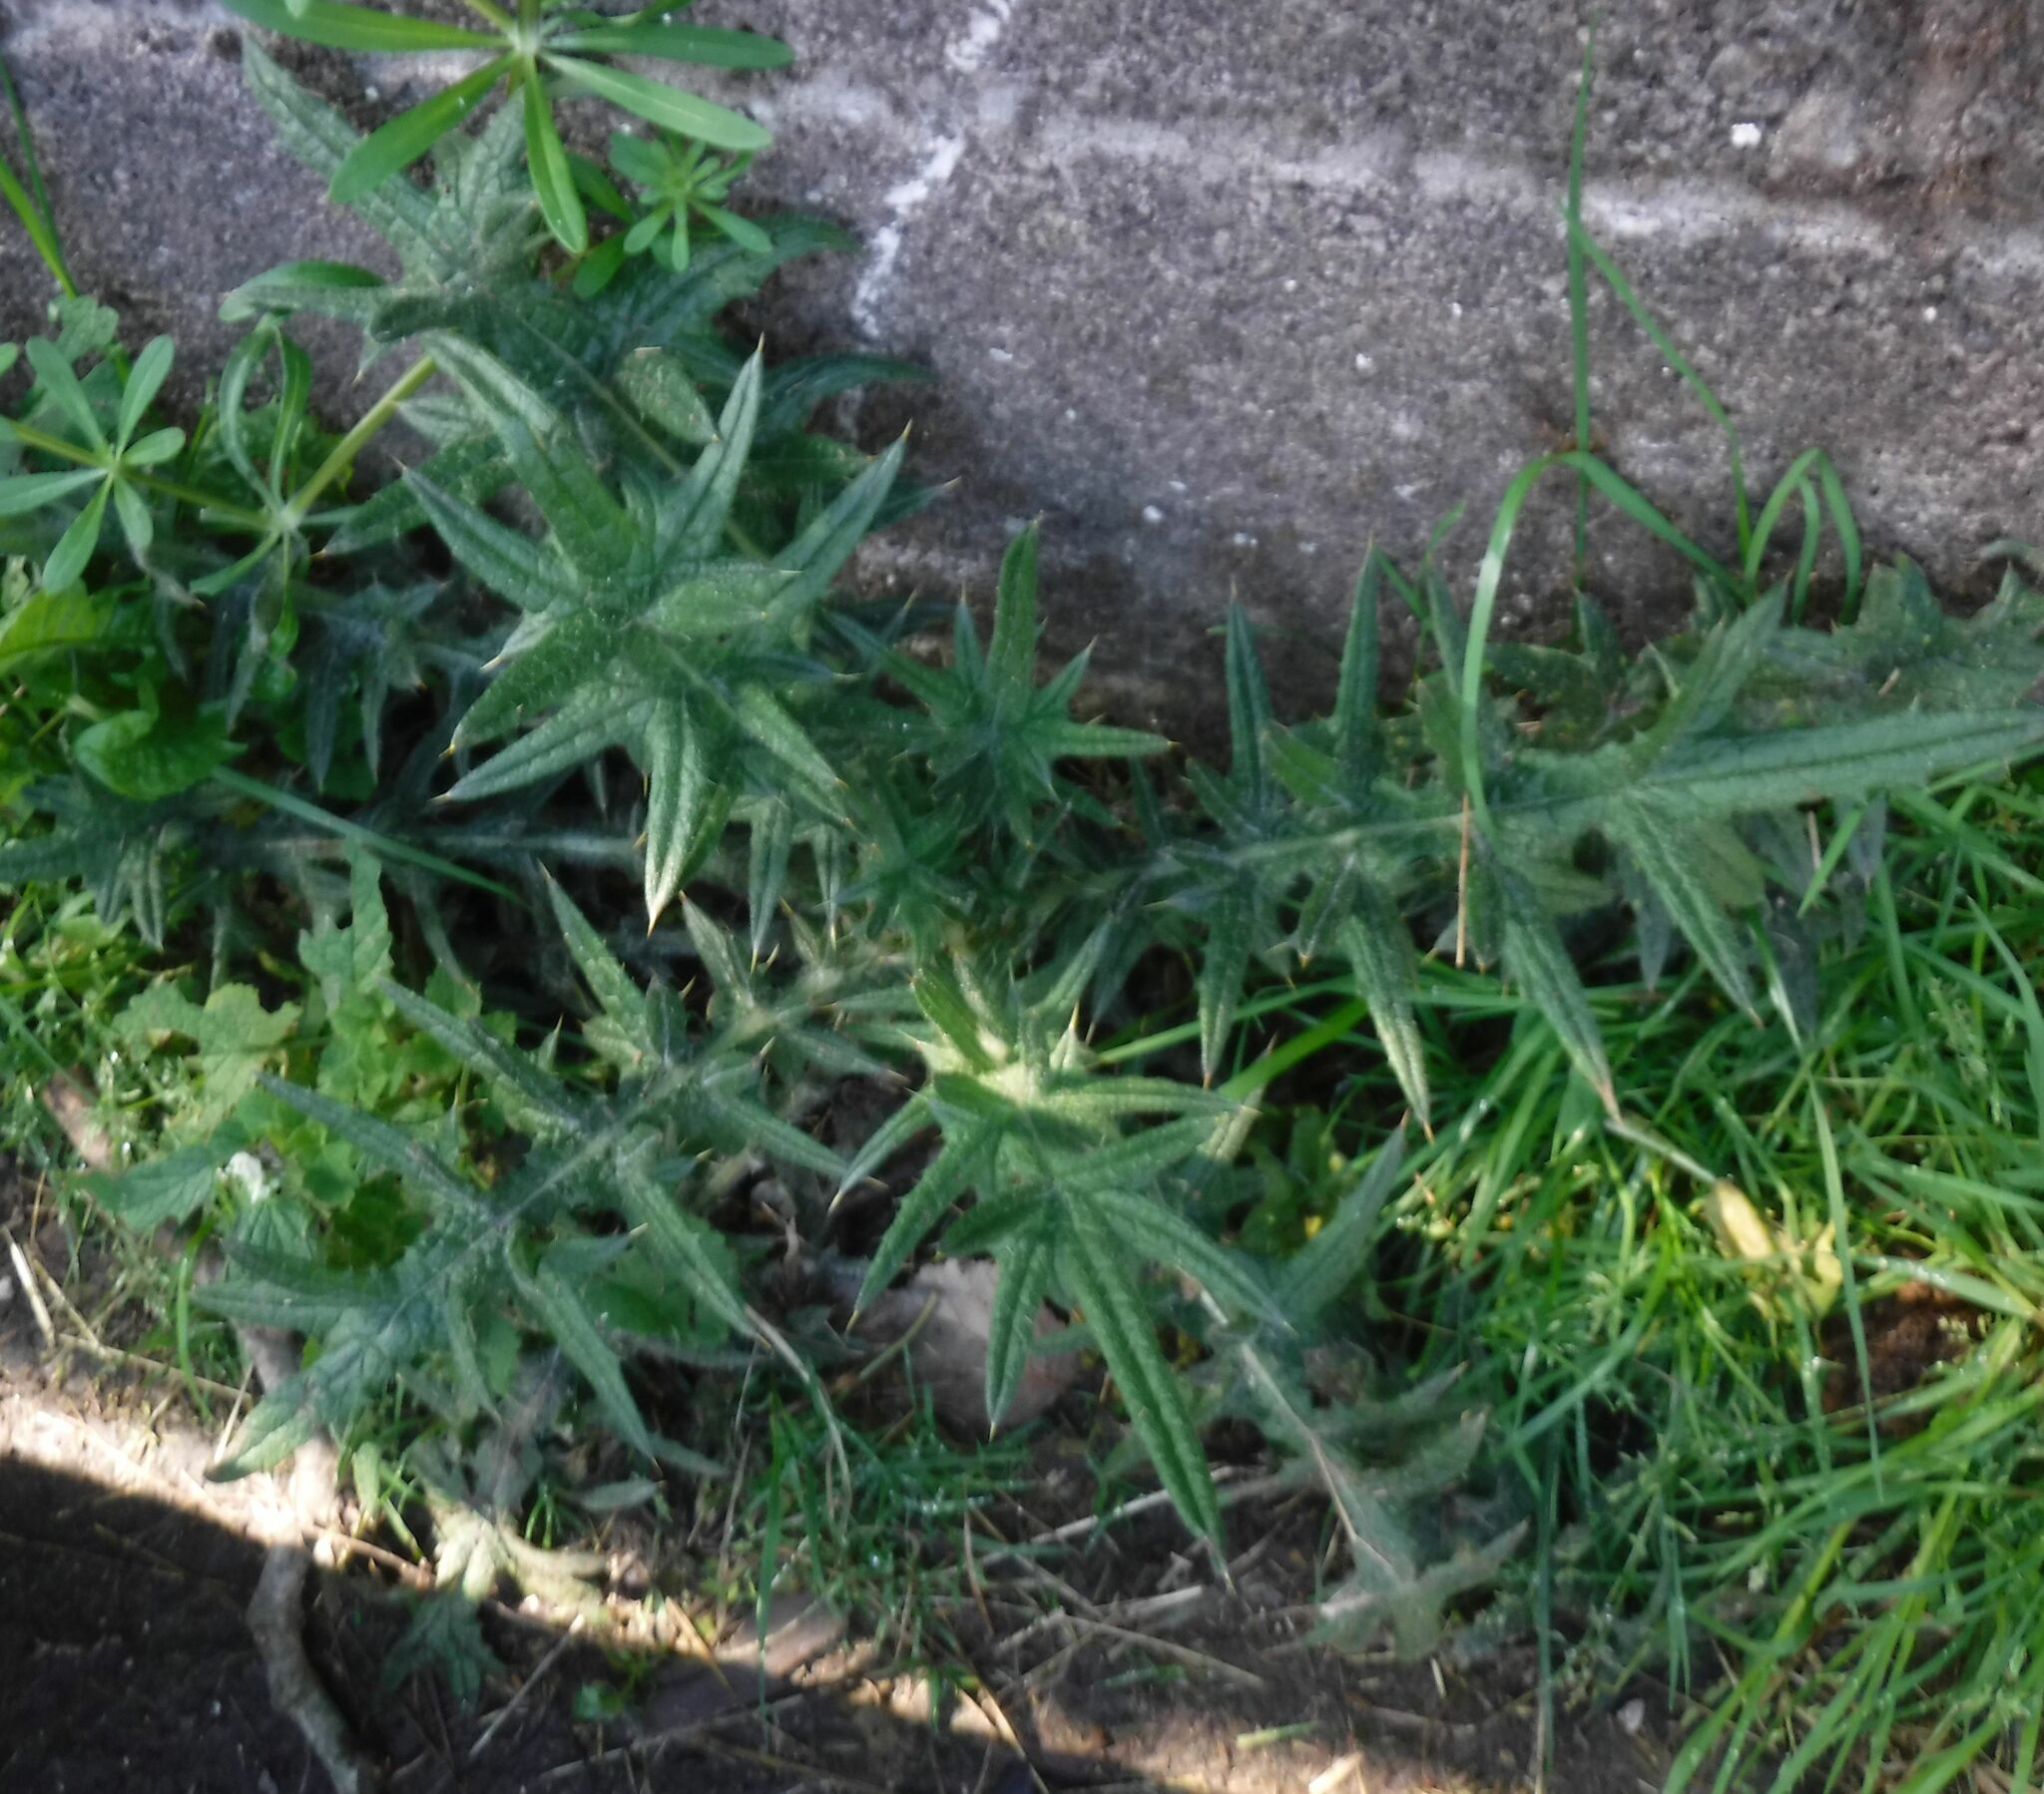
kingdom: Plantae
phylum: Tracheophyta
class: Magnoliopsida
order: Asterales
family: Asteraceae
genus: Cirsium
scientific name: Cirsium vulgare
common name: Bull thistle
